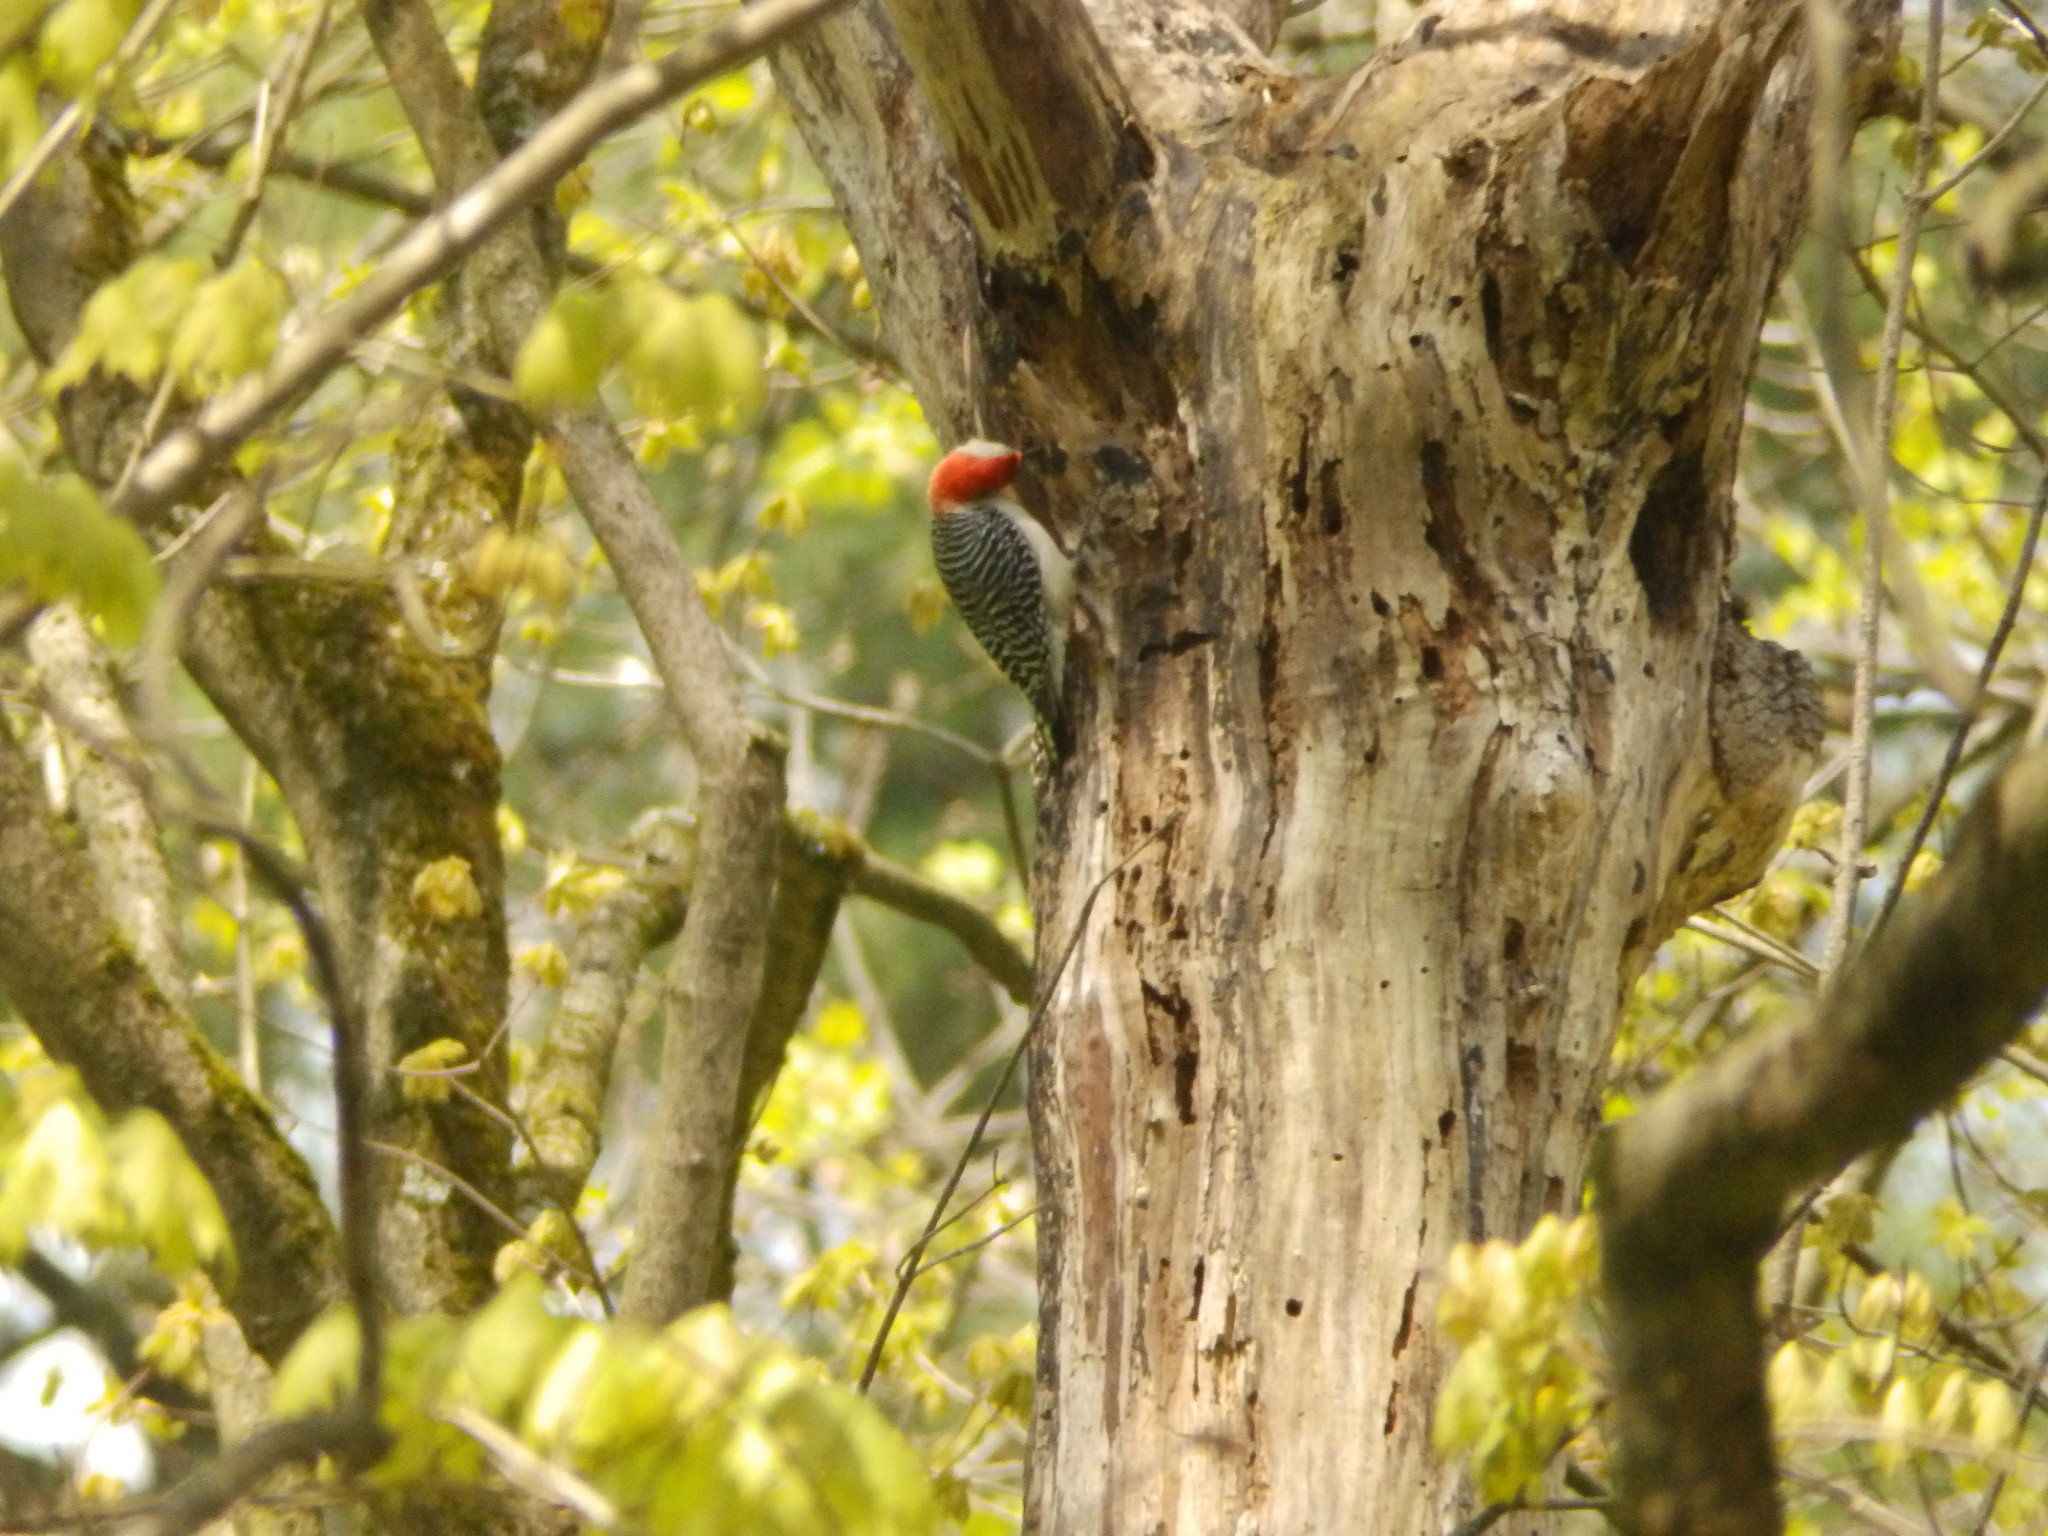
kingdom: Animalia
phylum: Chordata
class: Aves
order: Piciformes
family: Picidae
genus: Melanerpes
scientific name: Melanerpes carolinus
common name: Red-bellied woodpecker
